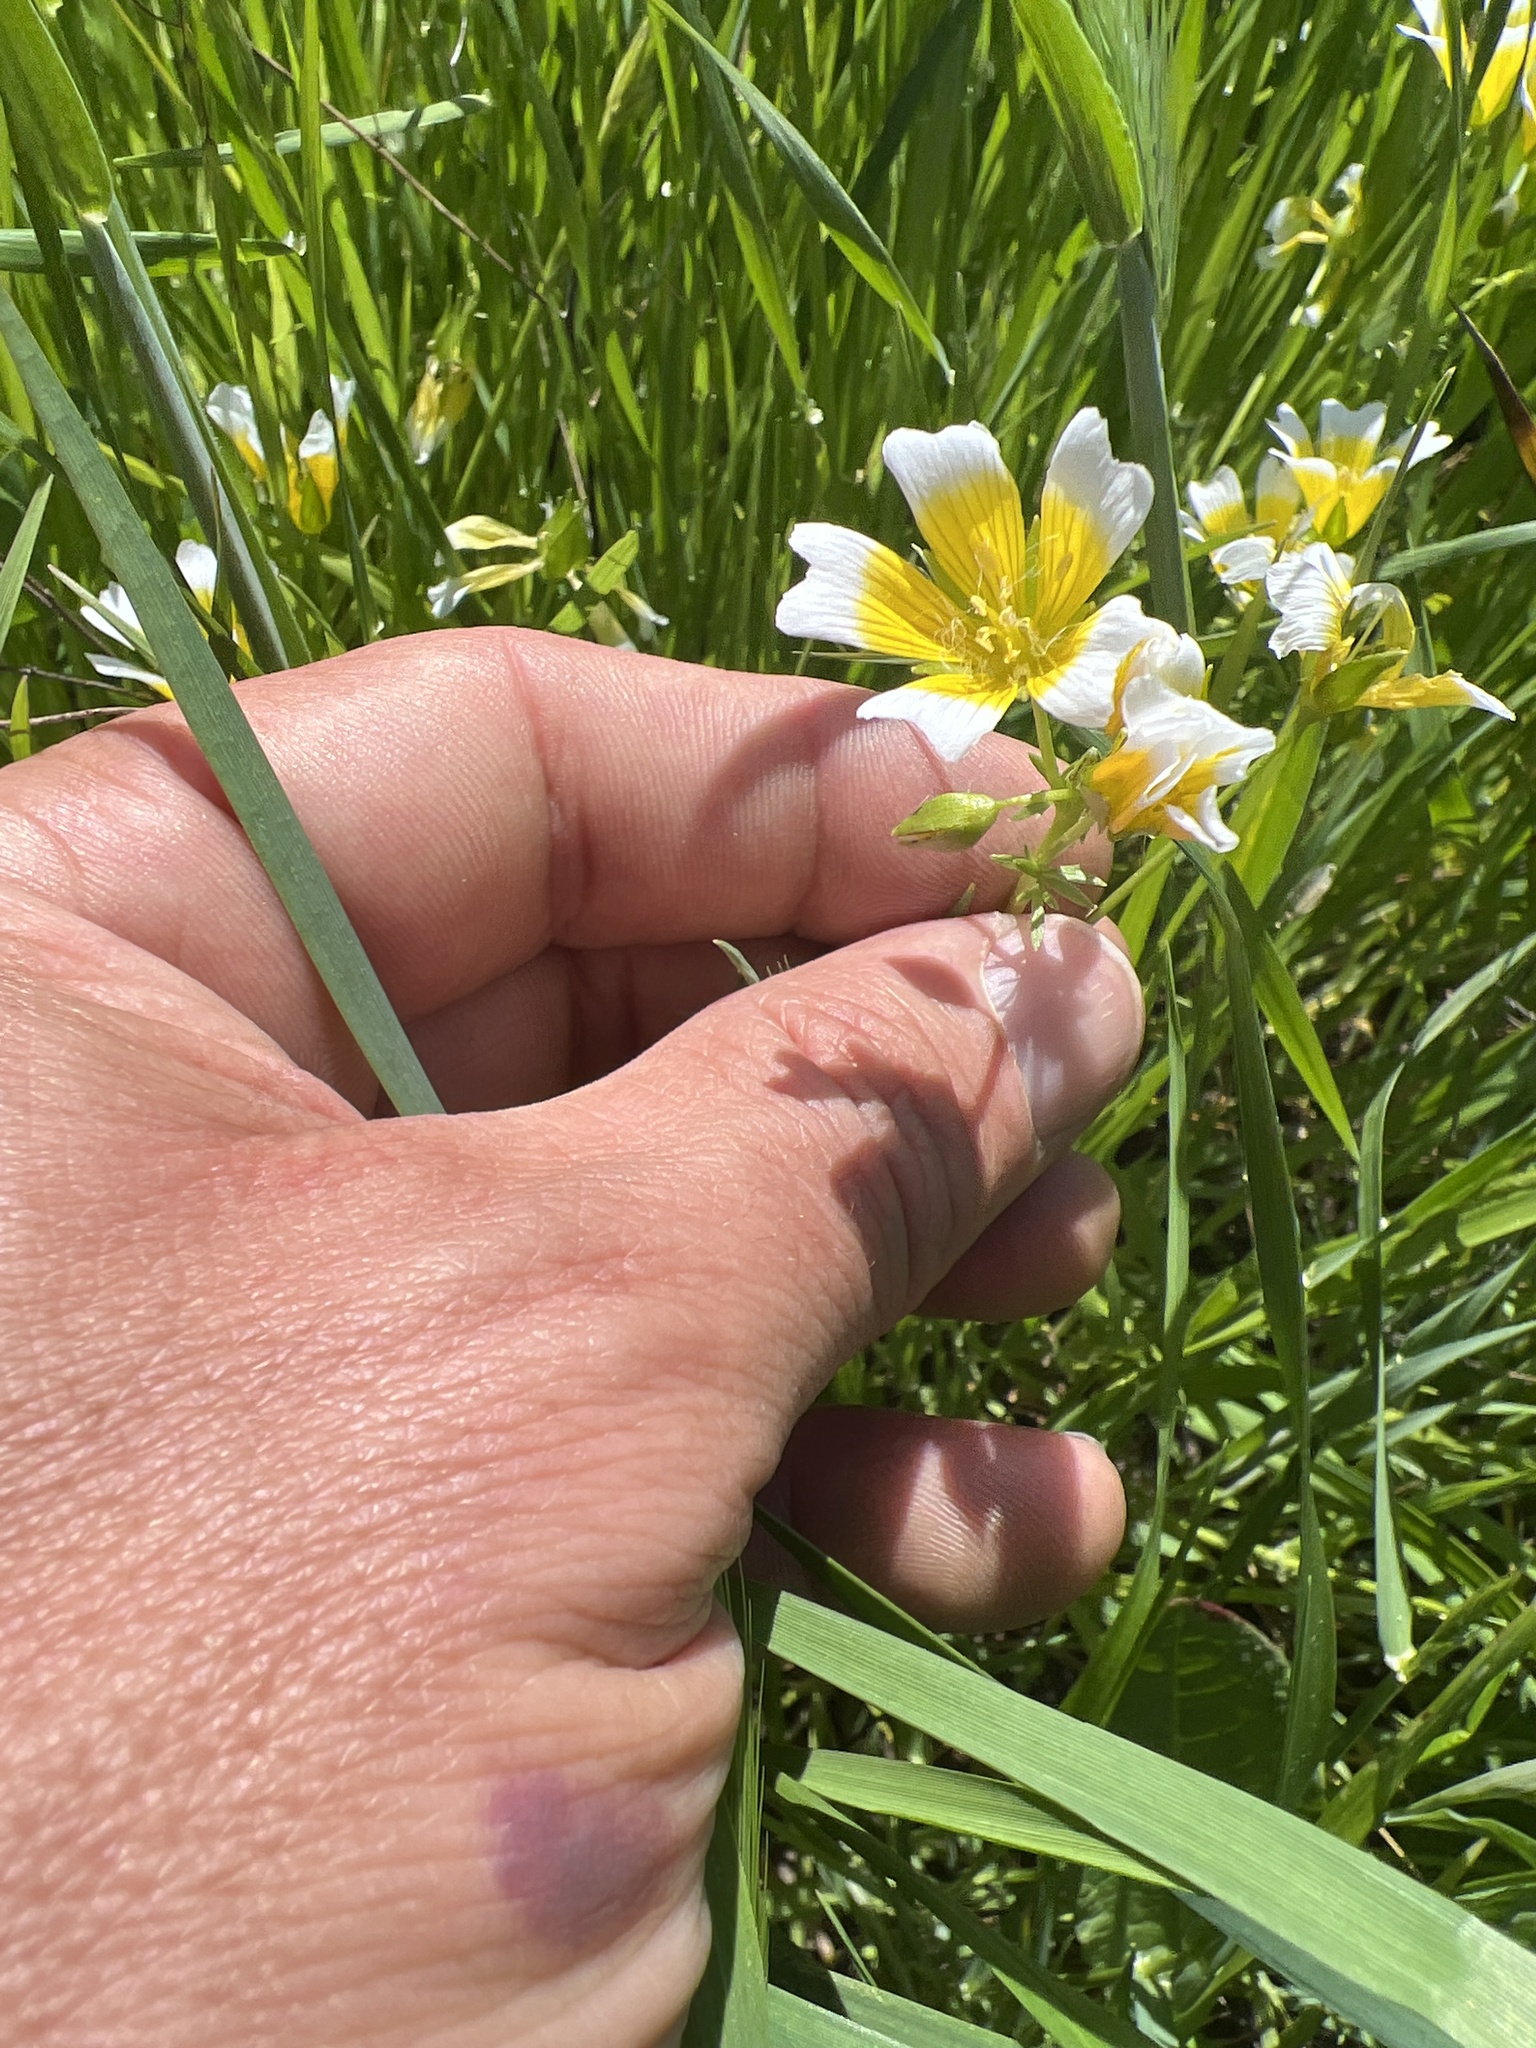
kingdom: Plantae
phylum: Tracheophyta
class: Magnoliopsida
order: Brassicales
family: Limnanthaceae
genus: Limnanthes
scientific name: Limnanthes douglasii
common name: Meadow-foam
